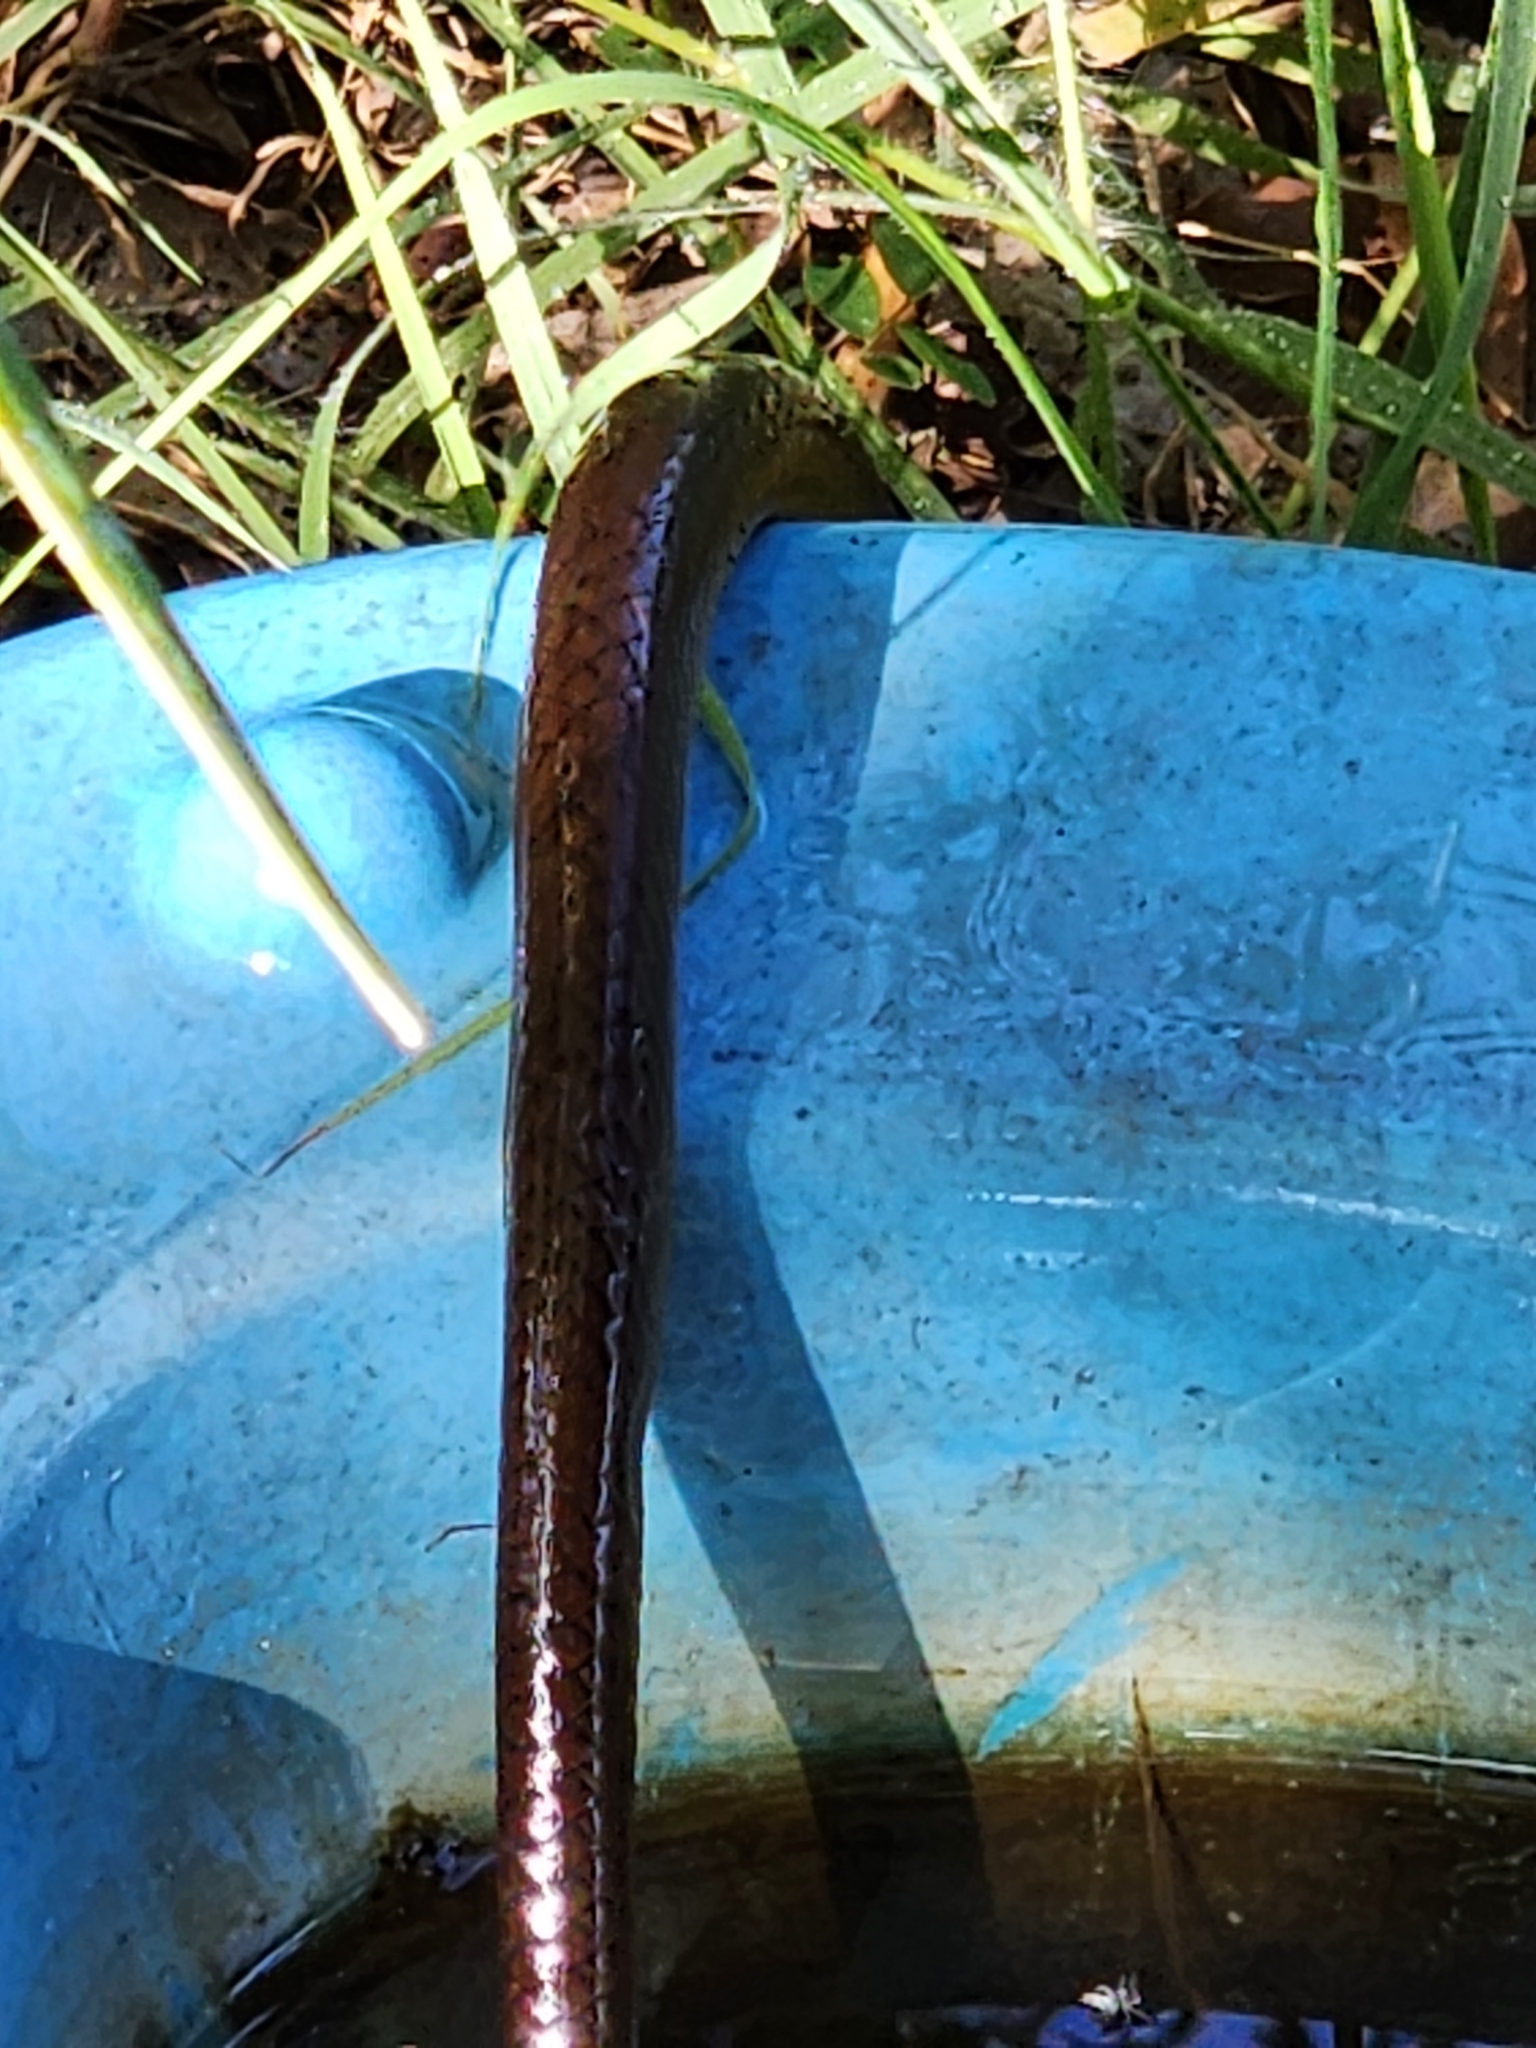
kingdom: Animalia
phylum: Chordata
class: Squamata
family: Colubridae
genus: Dendrelaphis
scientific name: Dendrelaphis punctulatus
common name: Common tree snake
